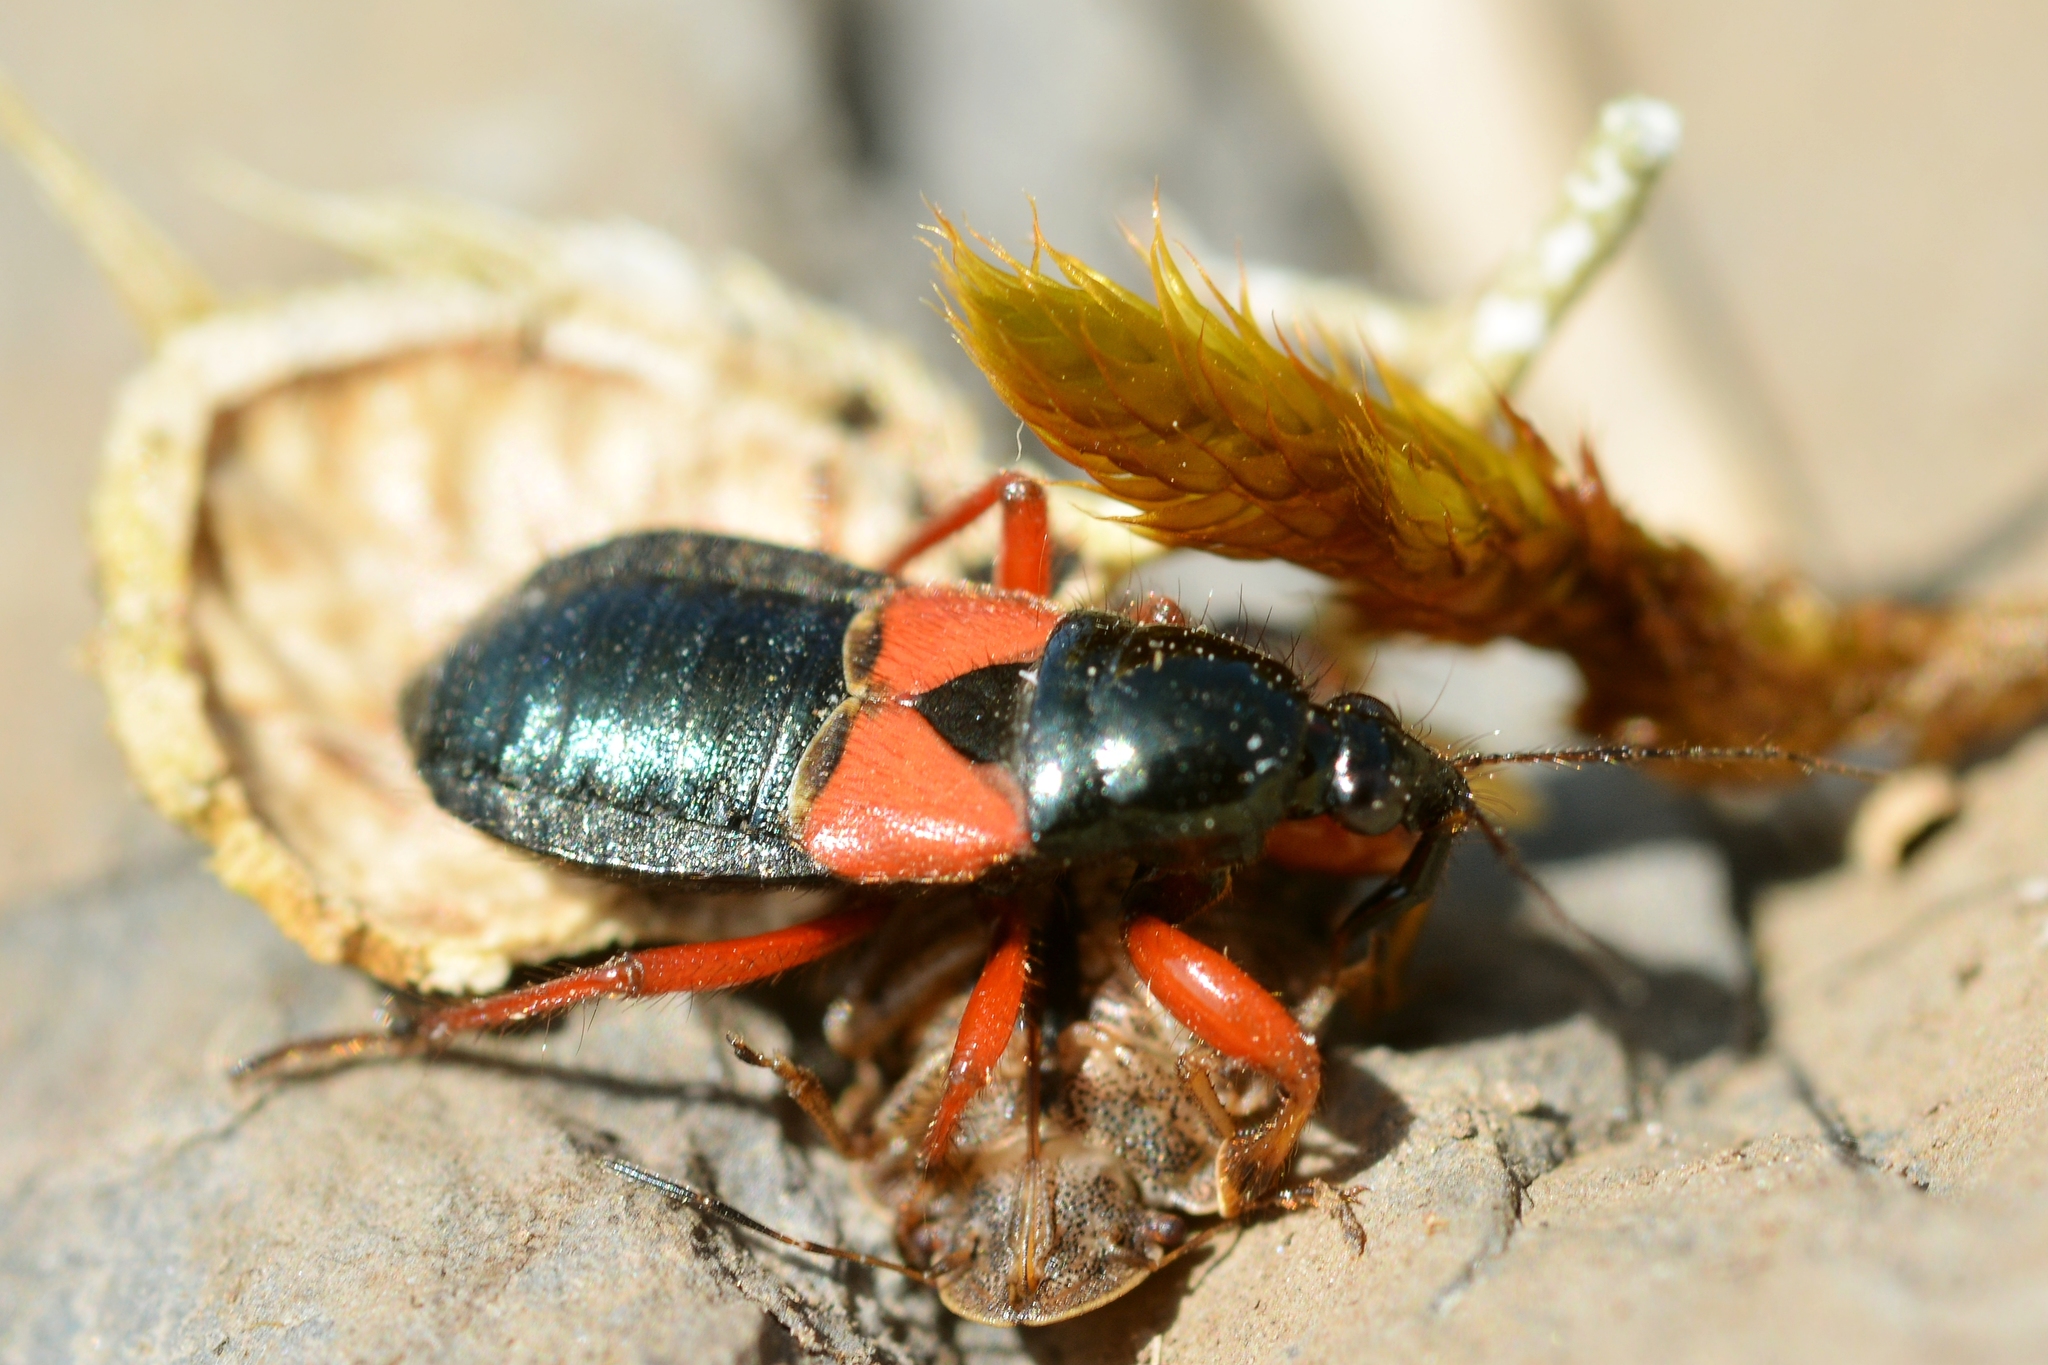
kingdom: Animalia
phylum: Arthropoda
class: Insecta
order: Hemiptera
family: Nabidae
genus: Prostemma
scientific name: Prostemma guttula
